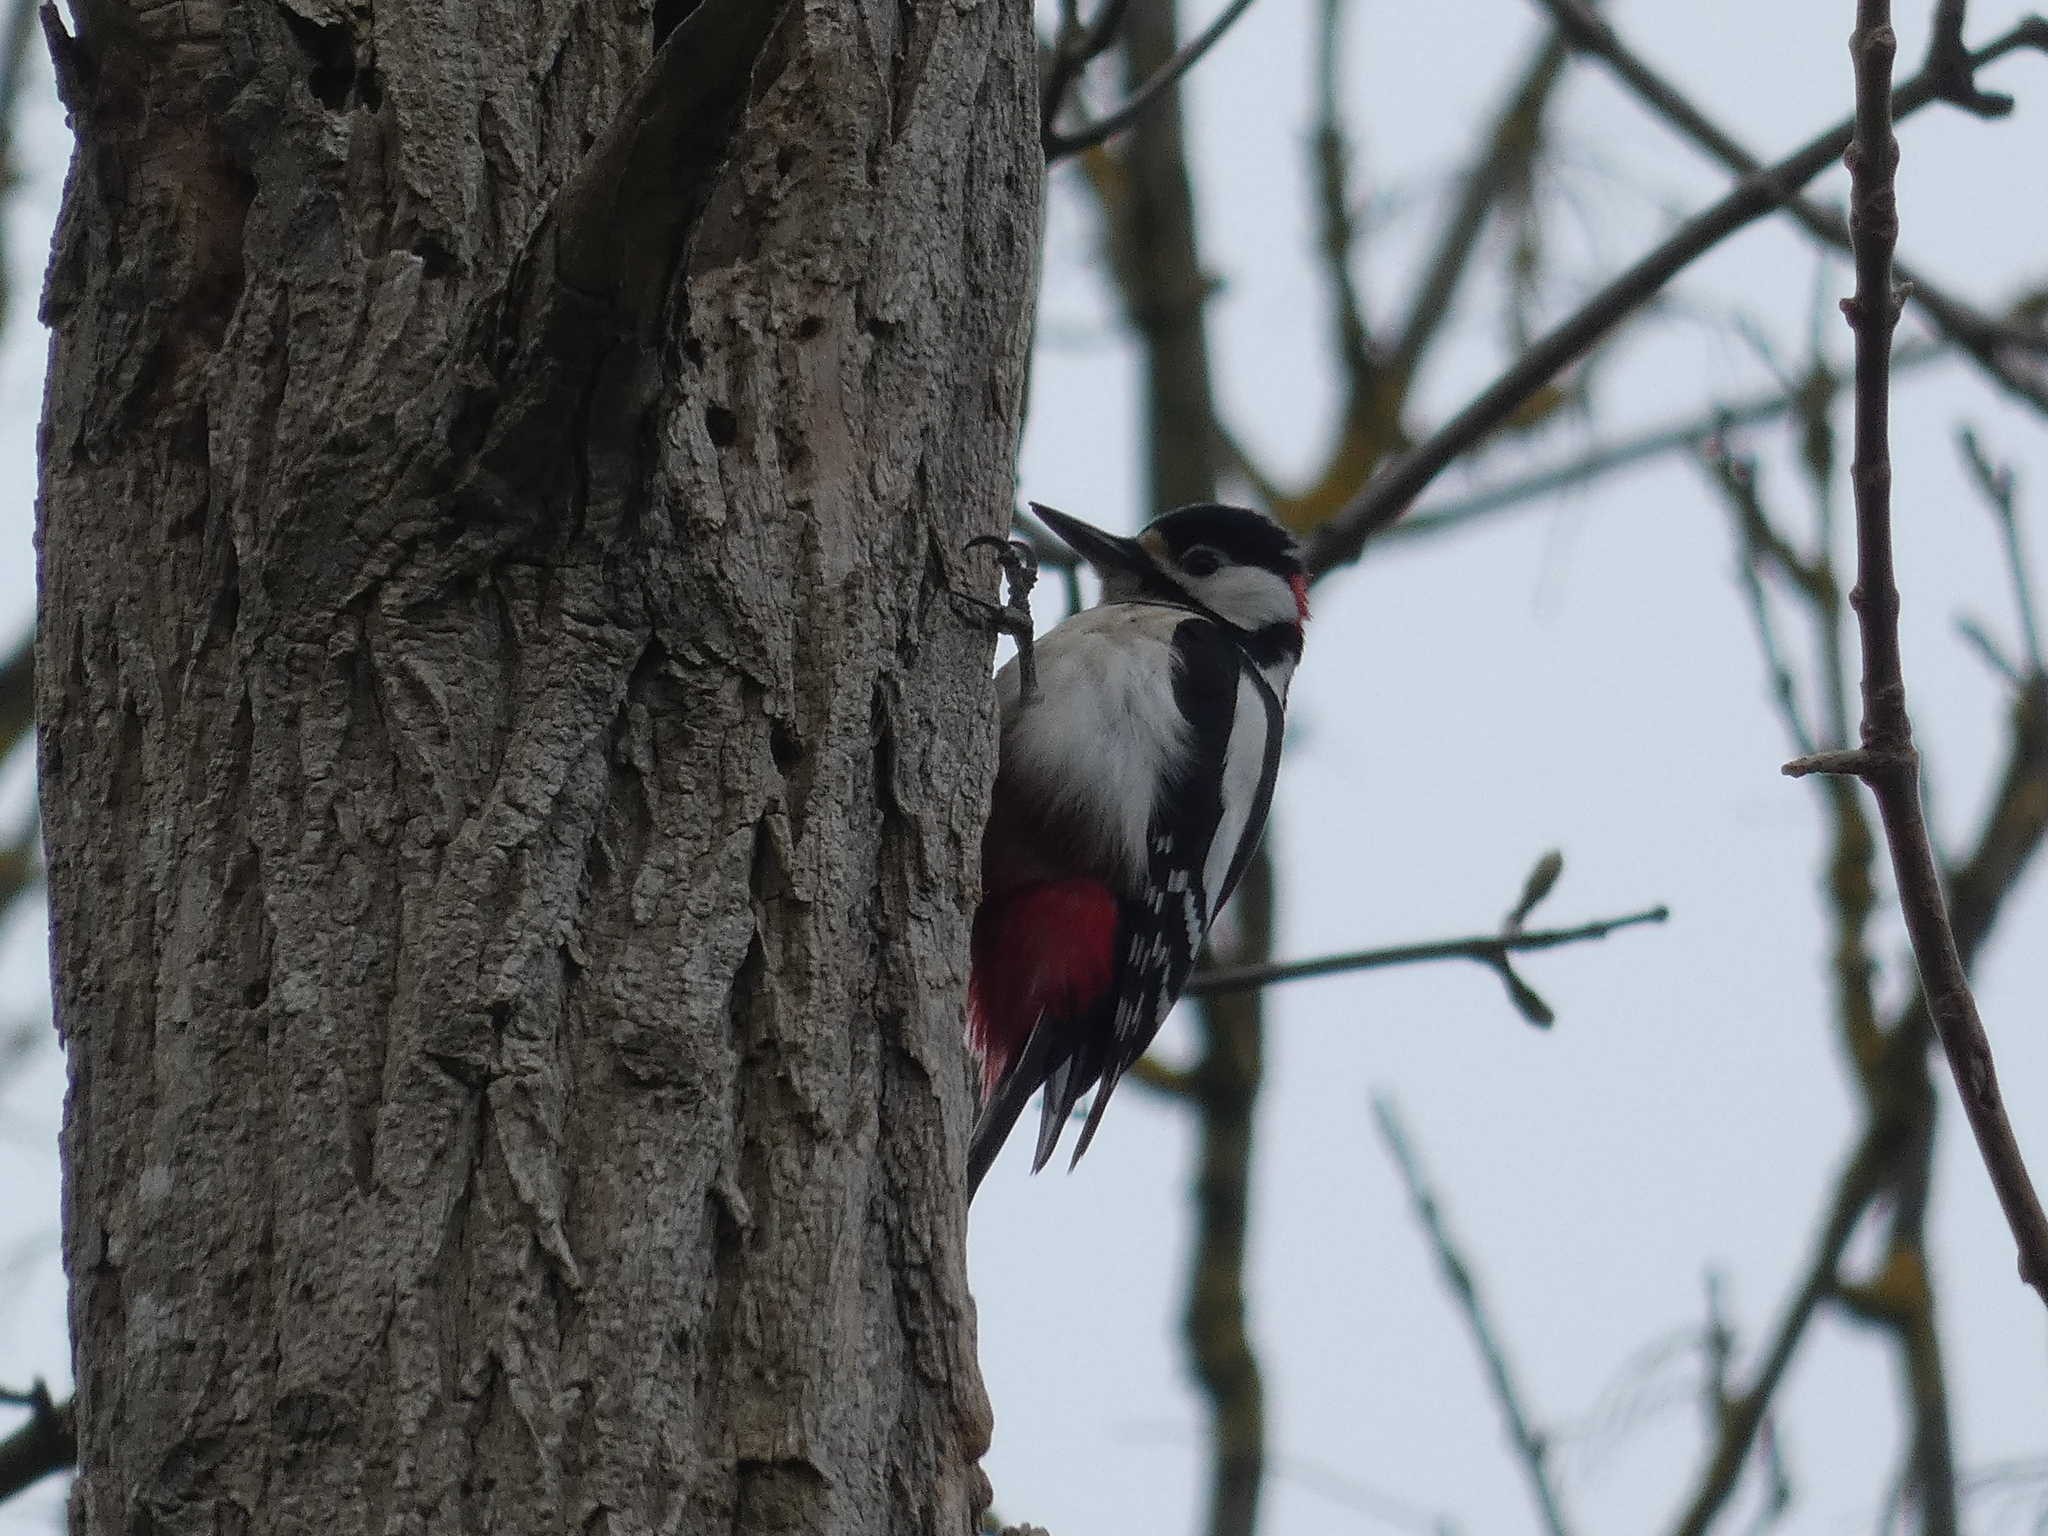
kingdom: Animalia
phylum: Chordata
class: Aves
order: Piciformes
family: Picidae
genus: Dendrocopos
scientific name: Dendrocopos major
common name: Great spotted woodpecker
